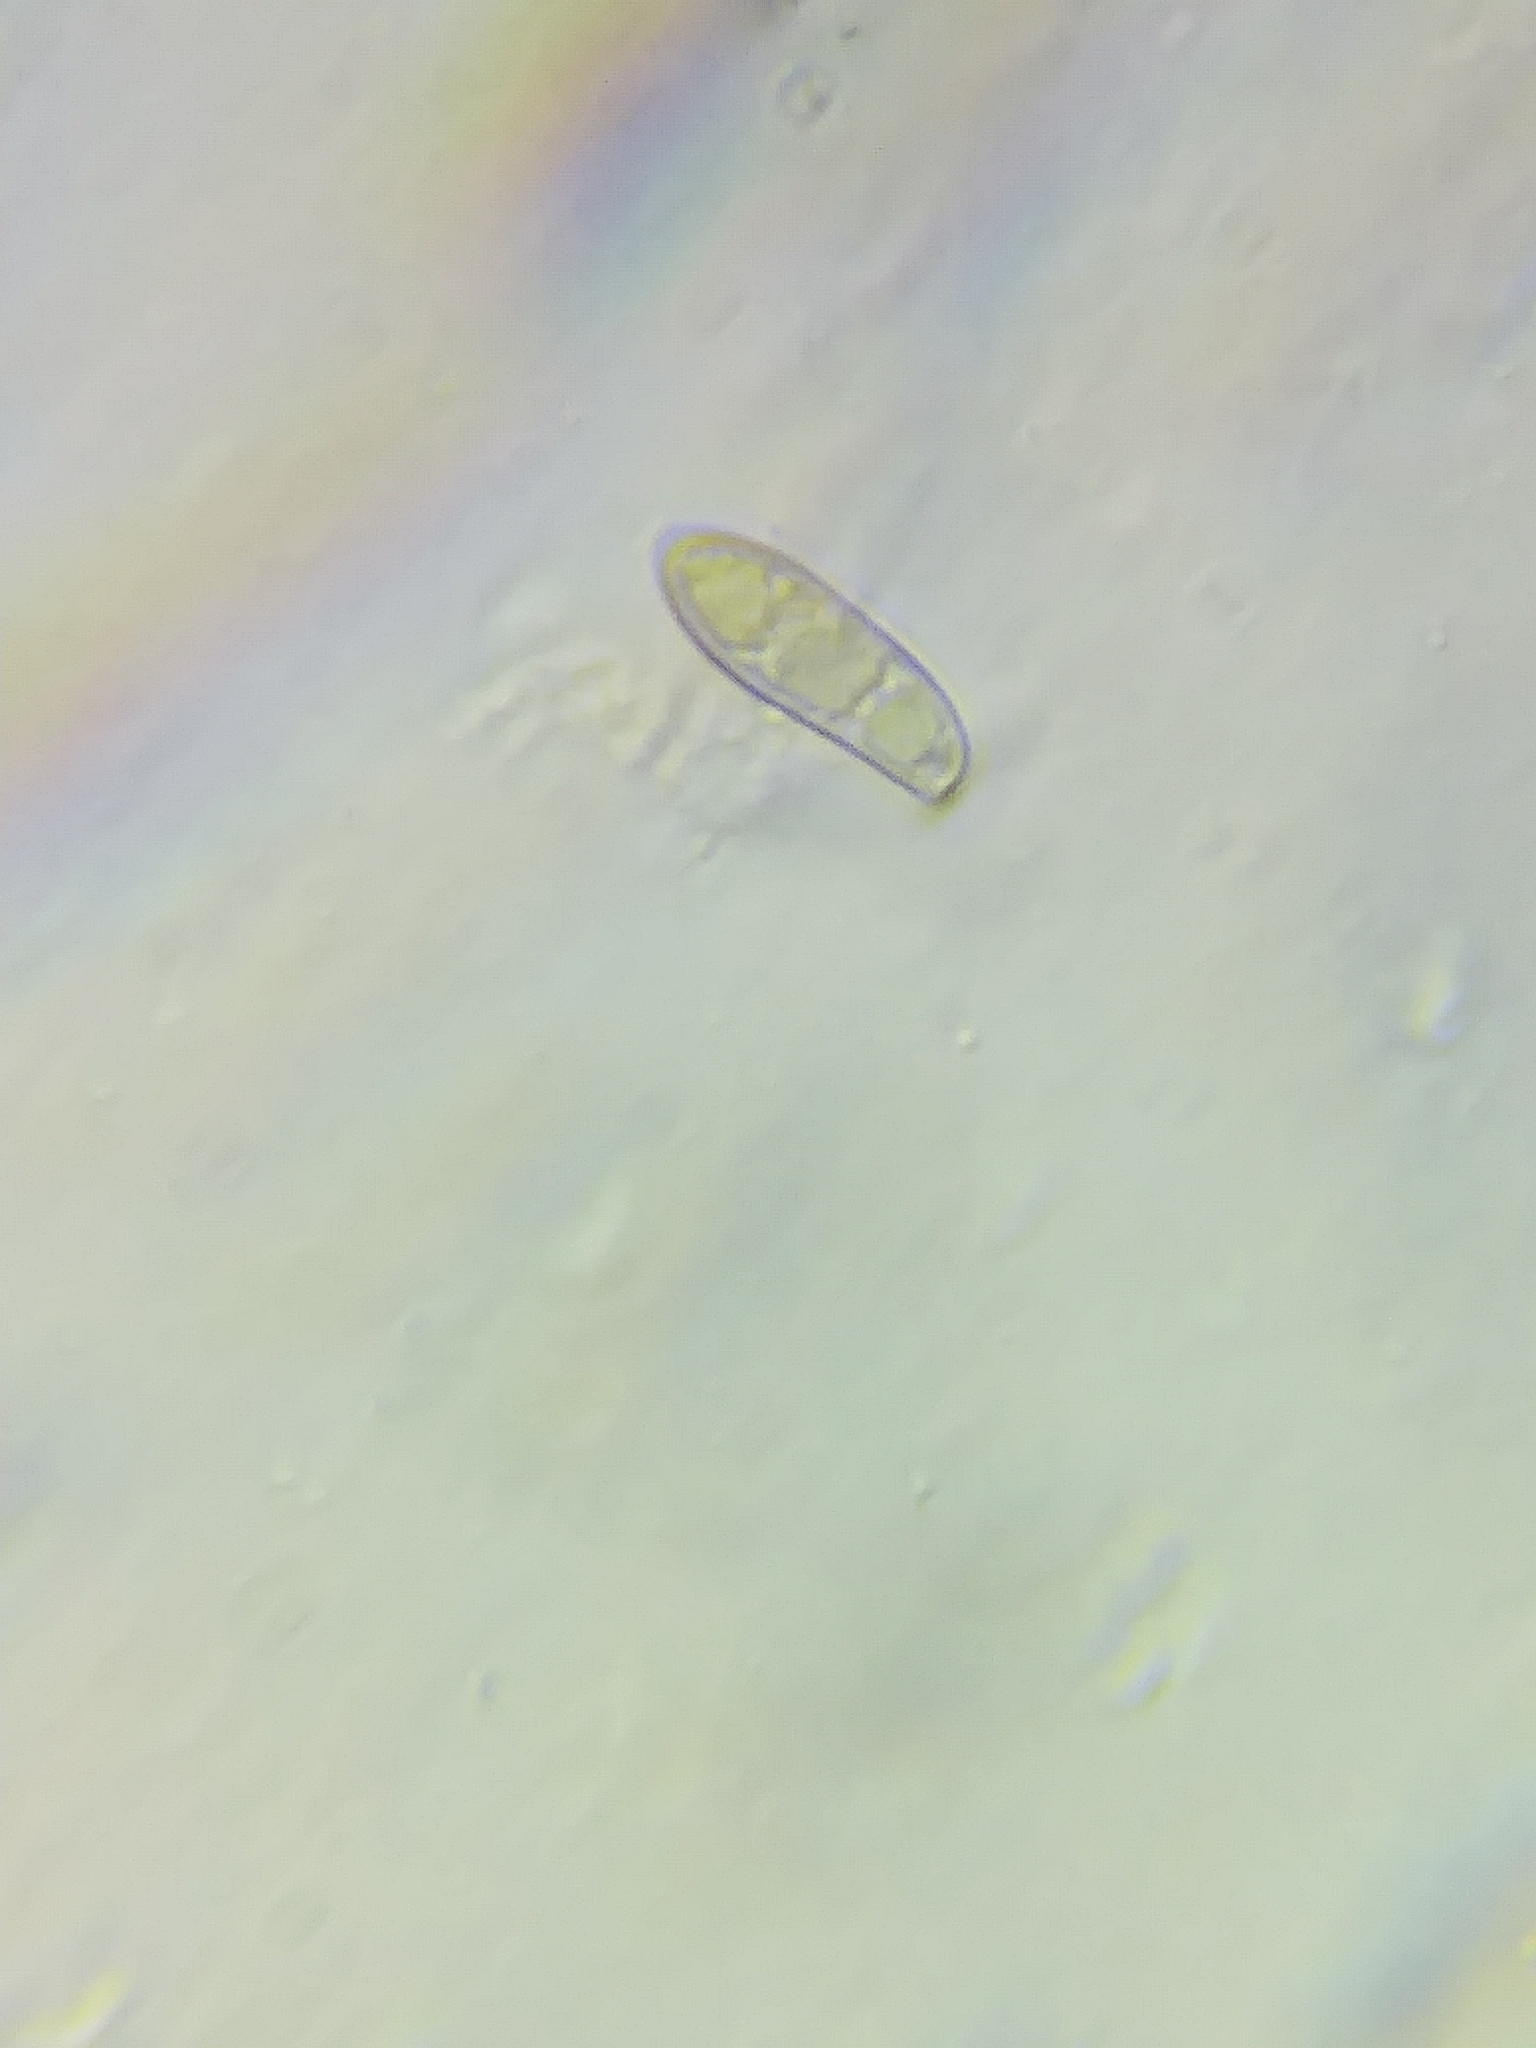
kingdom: Fungi
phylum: Basidiomycota
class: Agaricomycetes
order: Boletales
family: Boletaceae
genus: Boletus
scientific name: Boletus
